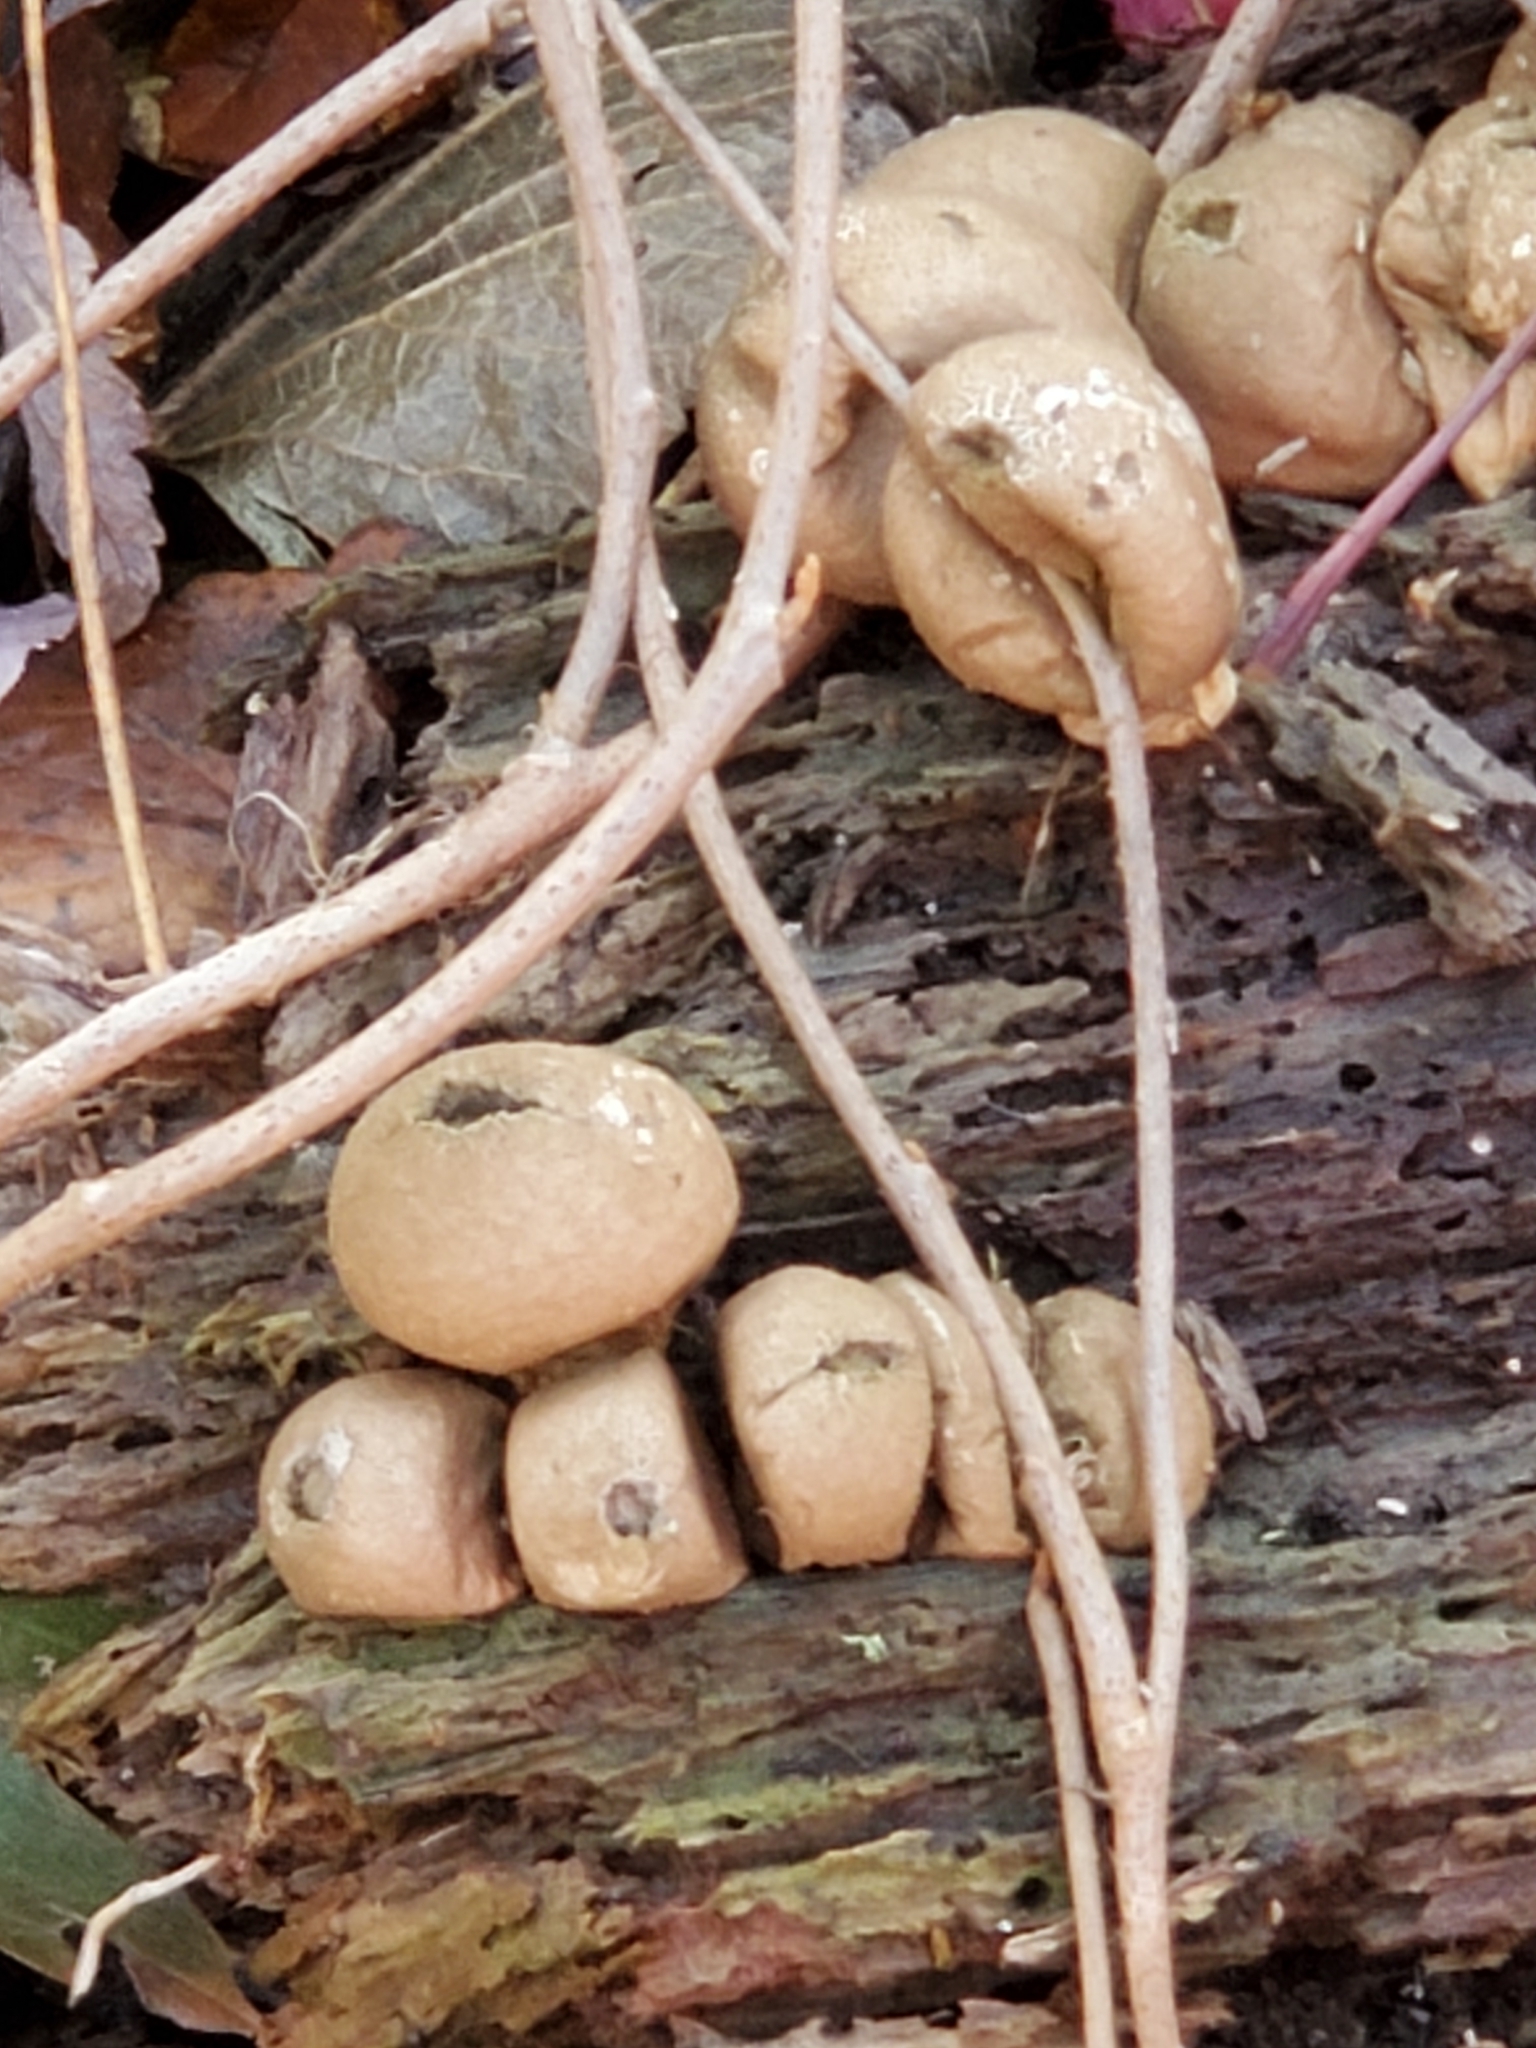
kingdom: Fungi
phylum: Basidiomycota
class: Agaricomycetes
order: Agaricales
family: Lycoperdaceae
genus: Apioperdon
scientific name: Apioperdon pyriforme
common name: Pear-shaped puffball
